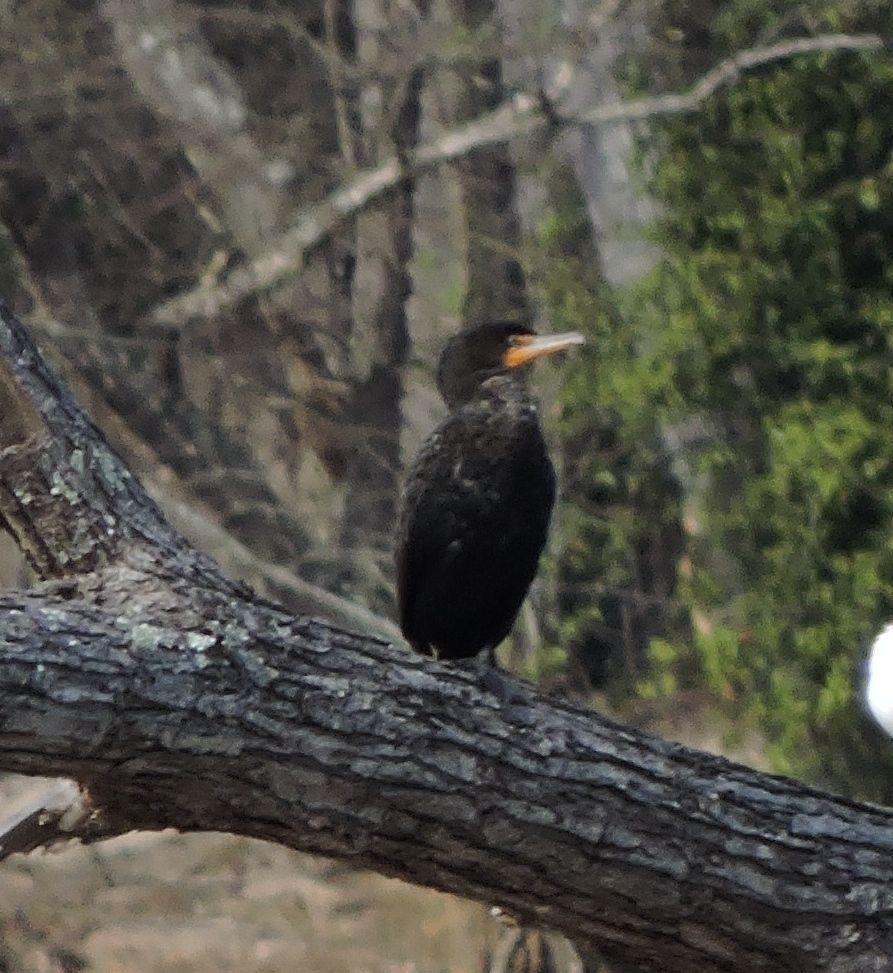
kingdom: Animalia
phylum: Chordata
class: Aves
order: Suliformes
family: Phalacrocoracidae
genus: Phalacrocorax
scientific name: Phalacrocorax auritus
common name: Double-crested cormorant
